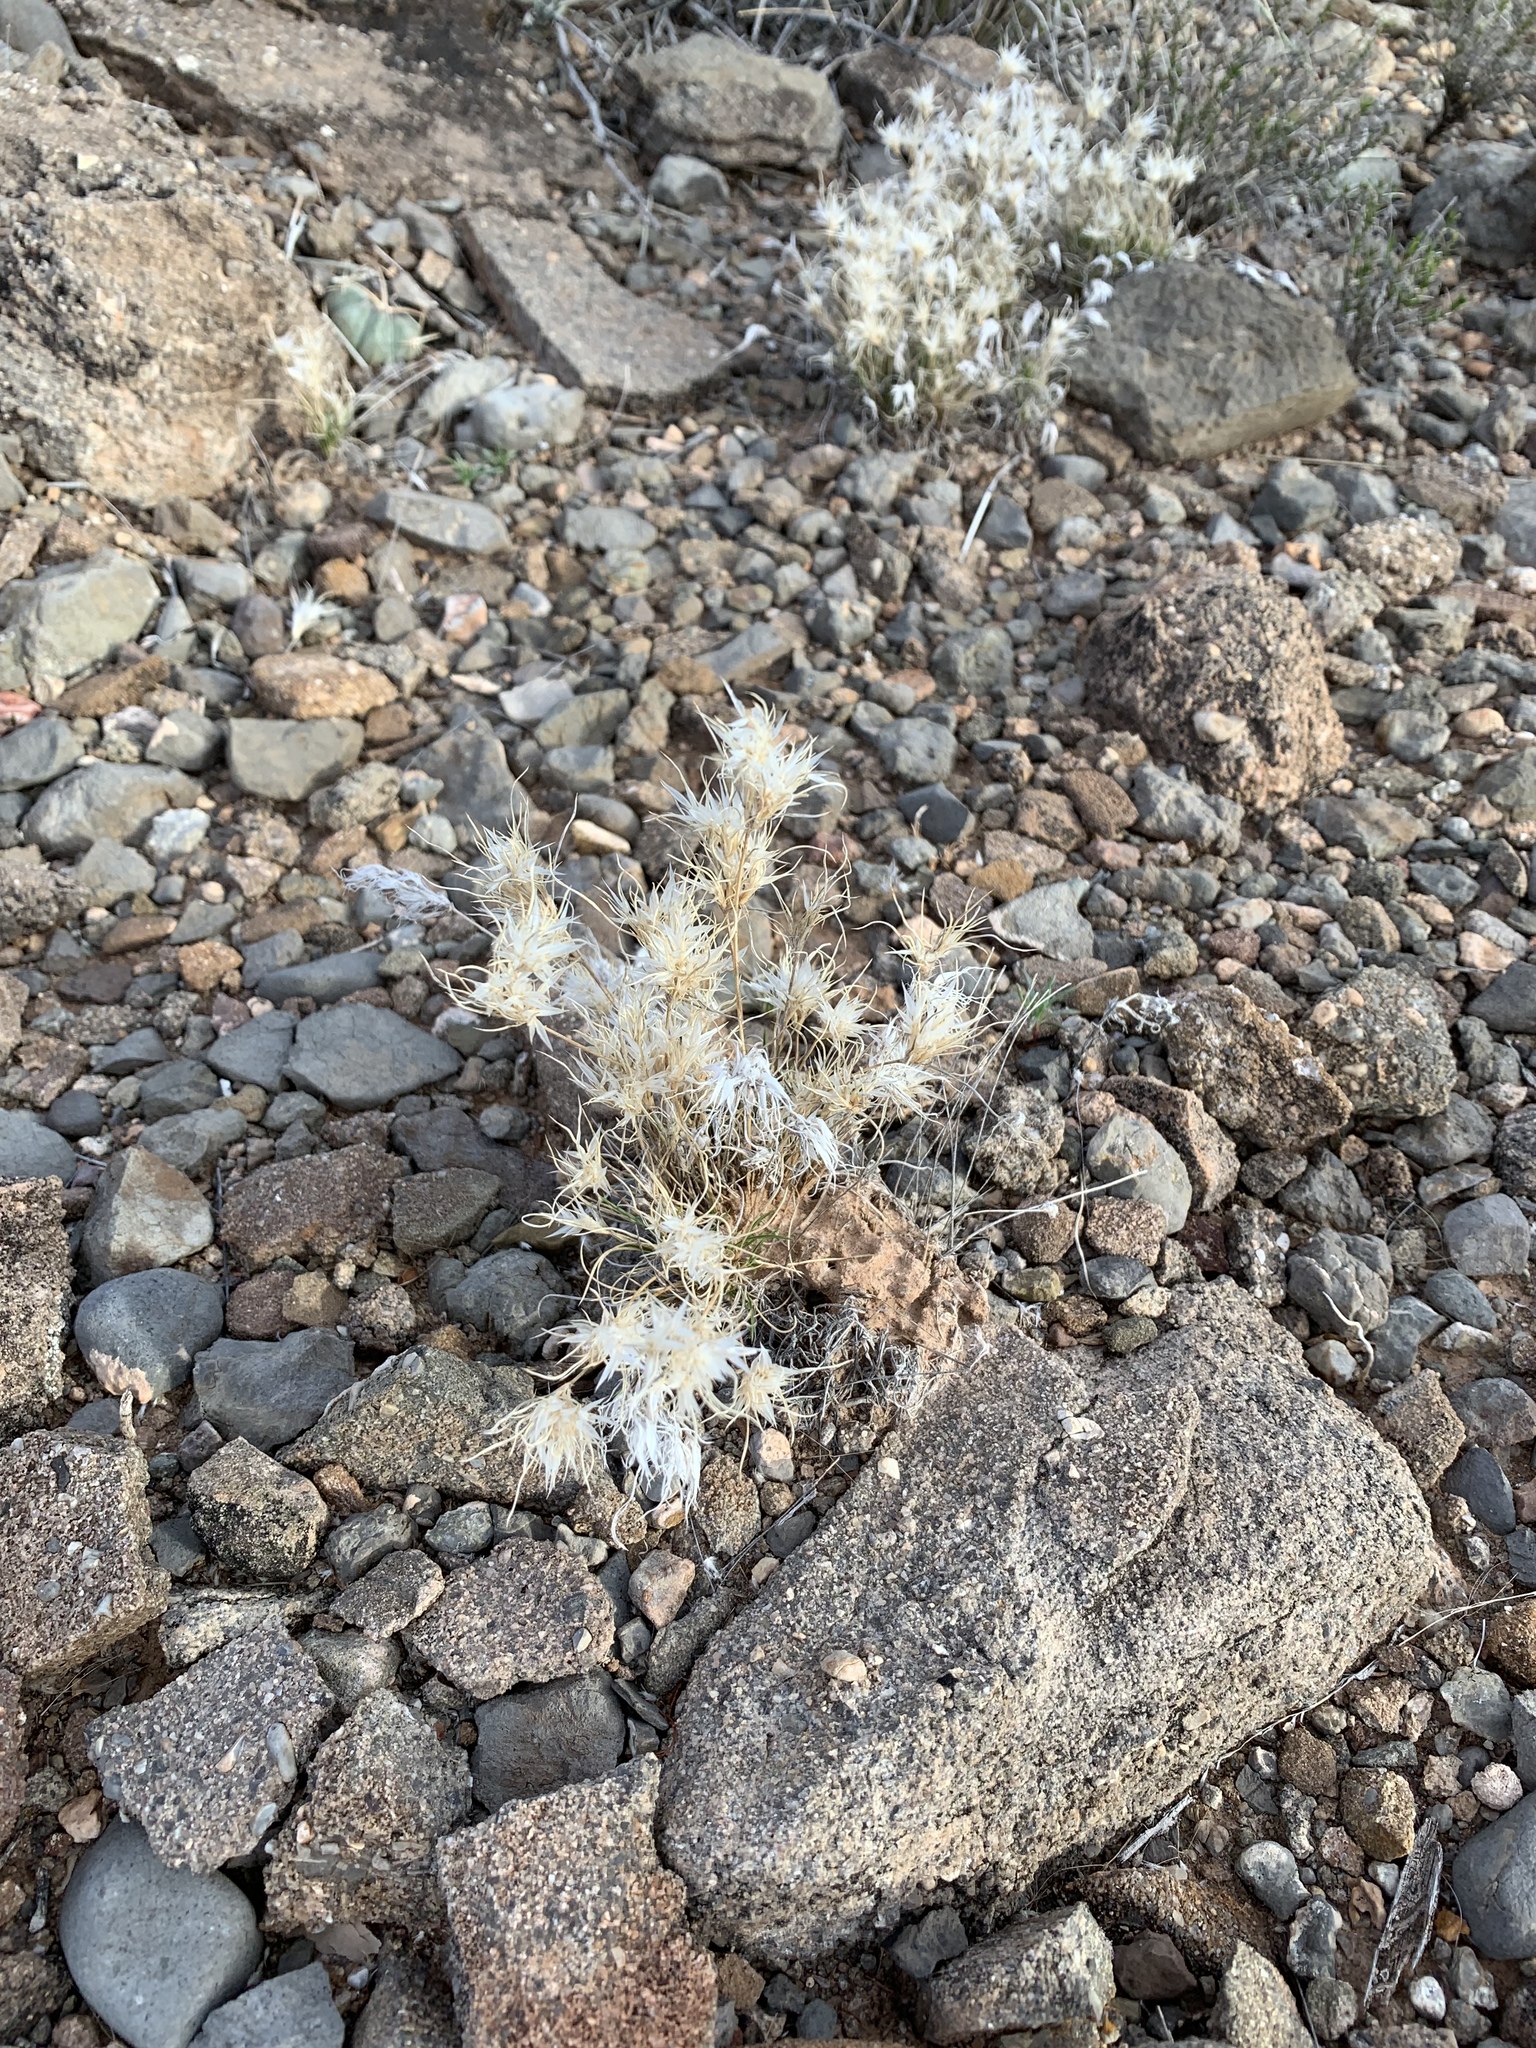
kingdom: Plantae
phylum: Tracheophyta
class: Liliopsida
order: Poales
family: Poaceae
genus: Dasyochloa
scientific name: Dasyochloa pulchella
